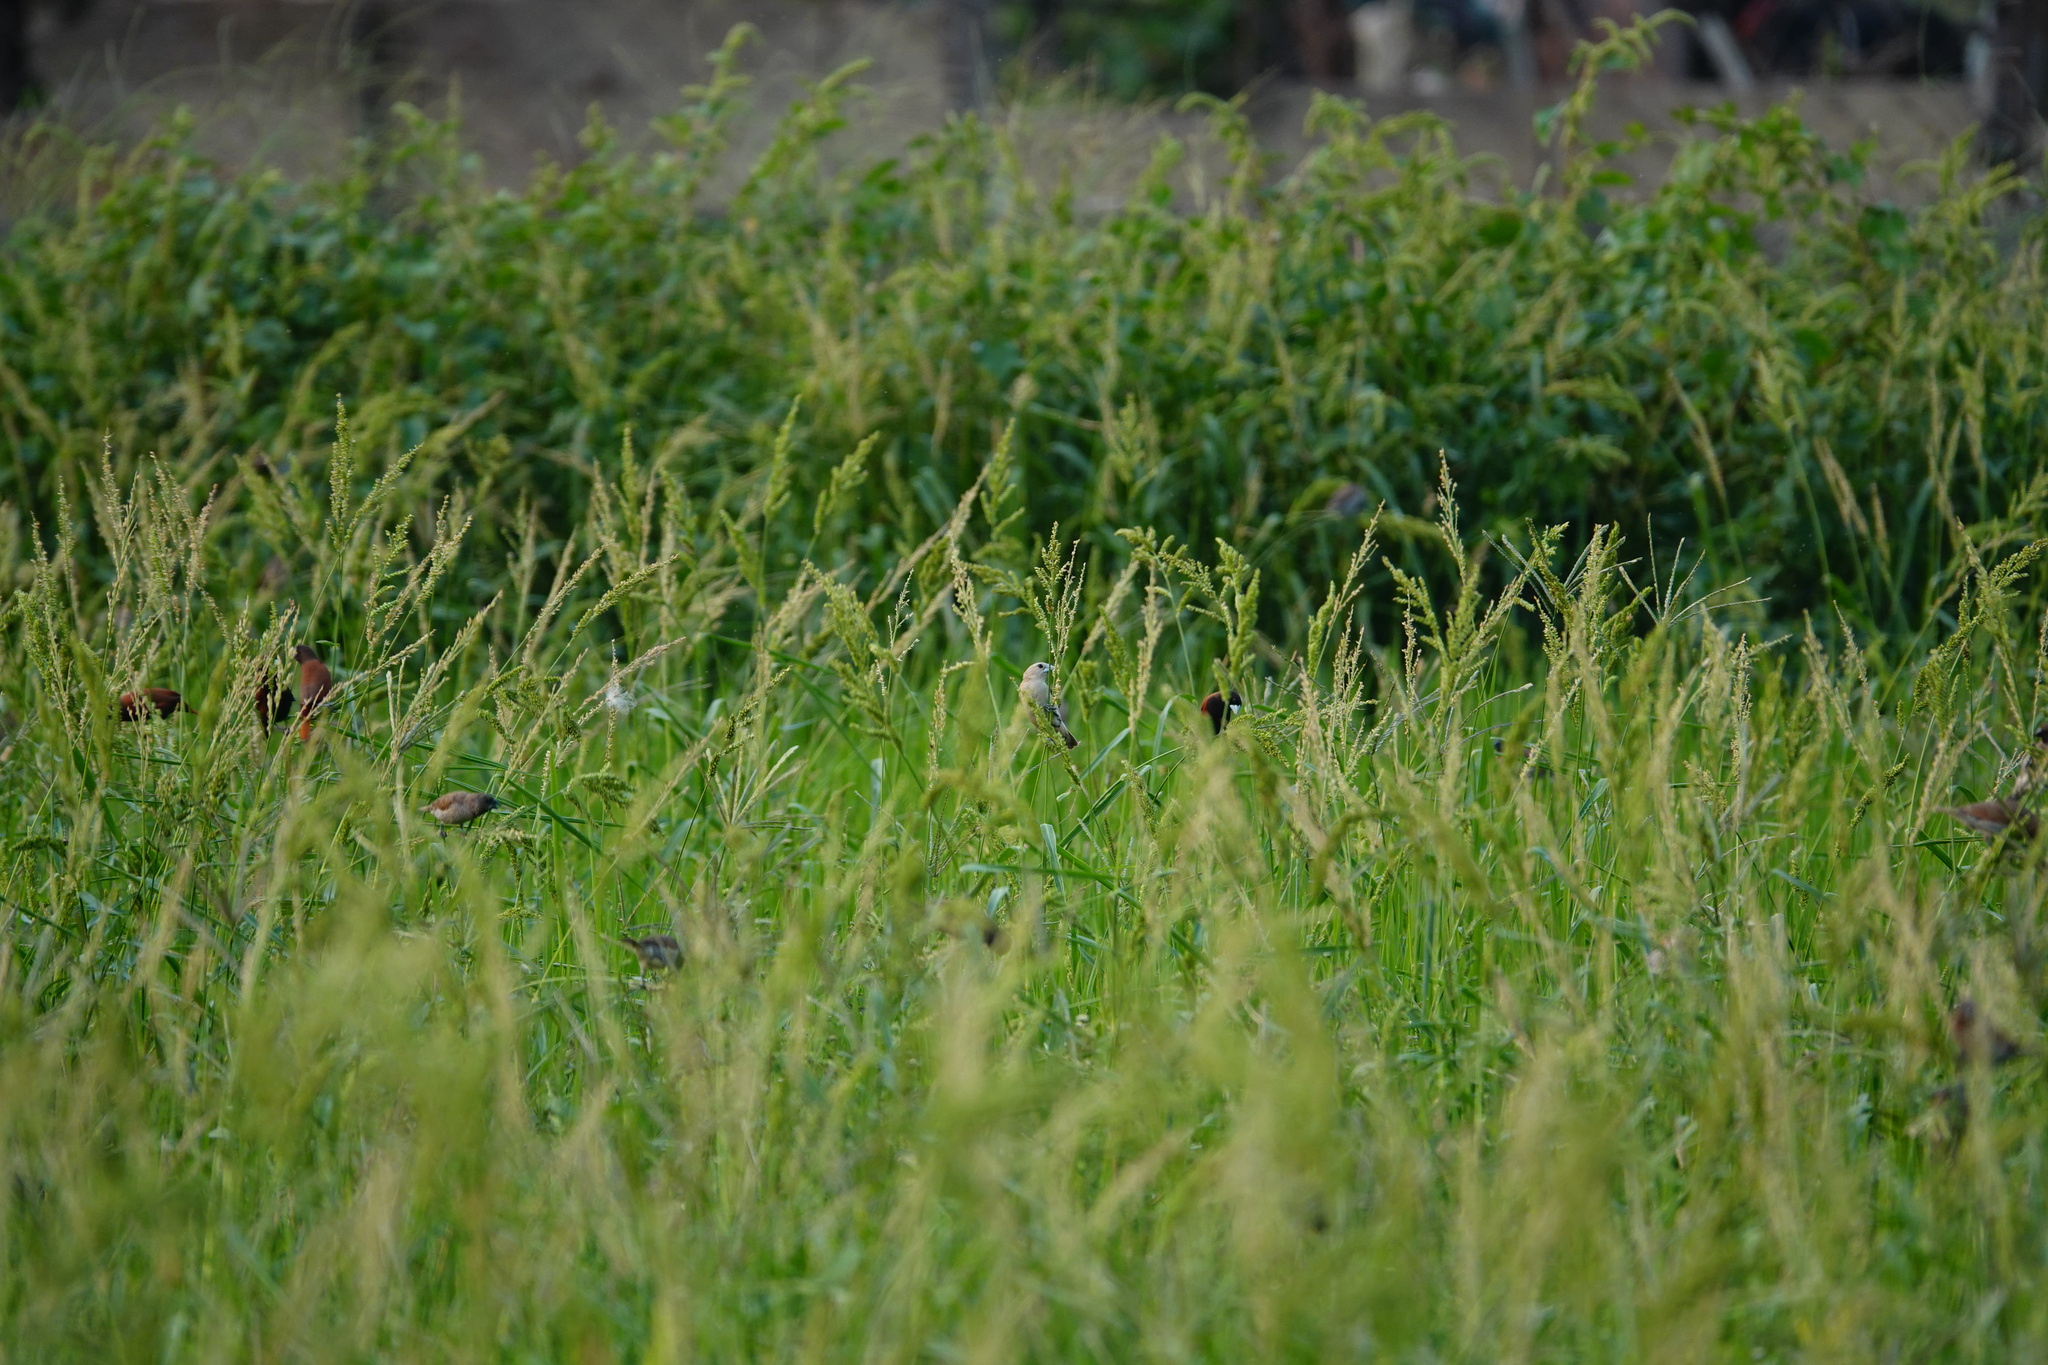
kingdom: Animalia
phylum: Chordata
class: Aves
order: Passeriformes
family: Estrildidae
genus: Lonchura
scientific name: Lonchura maja
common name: White-headed munia
